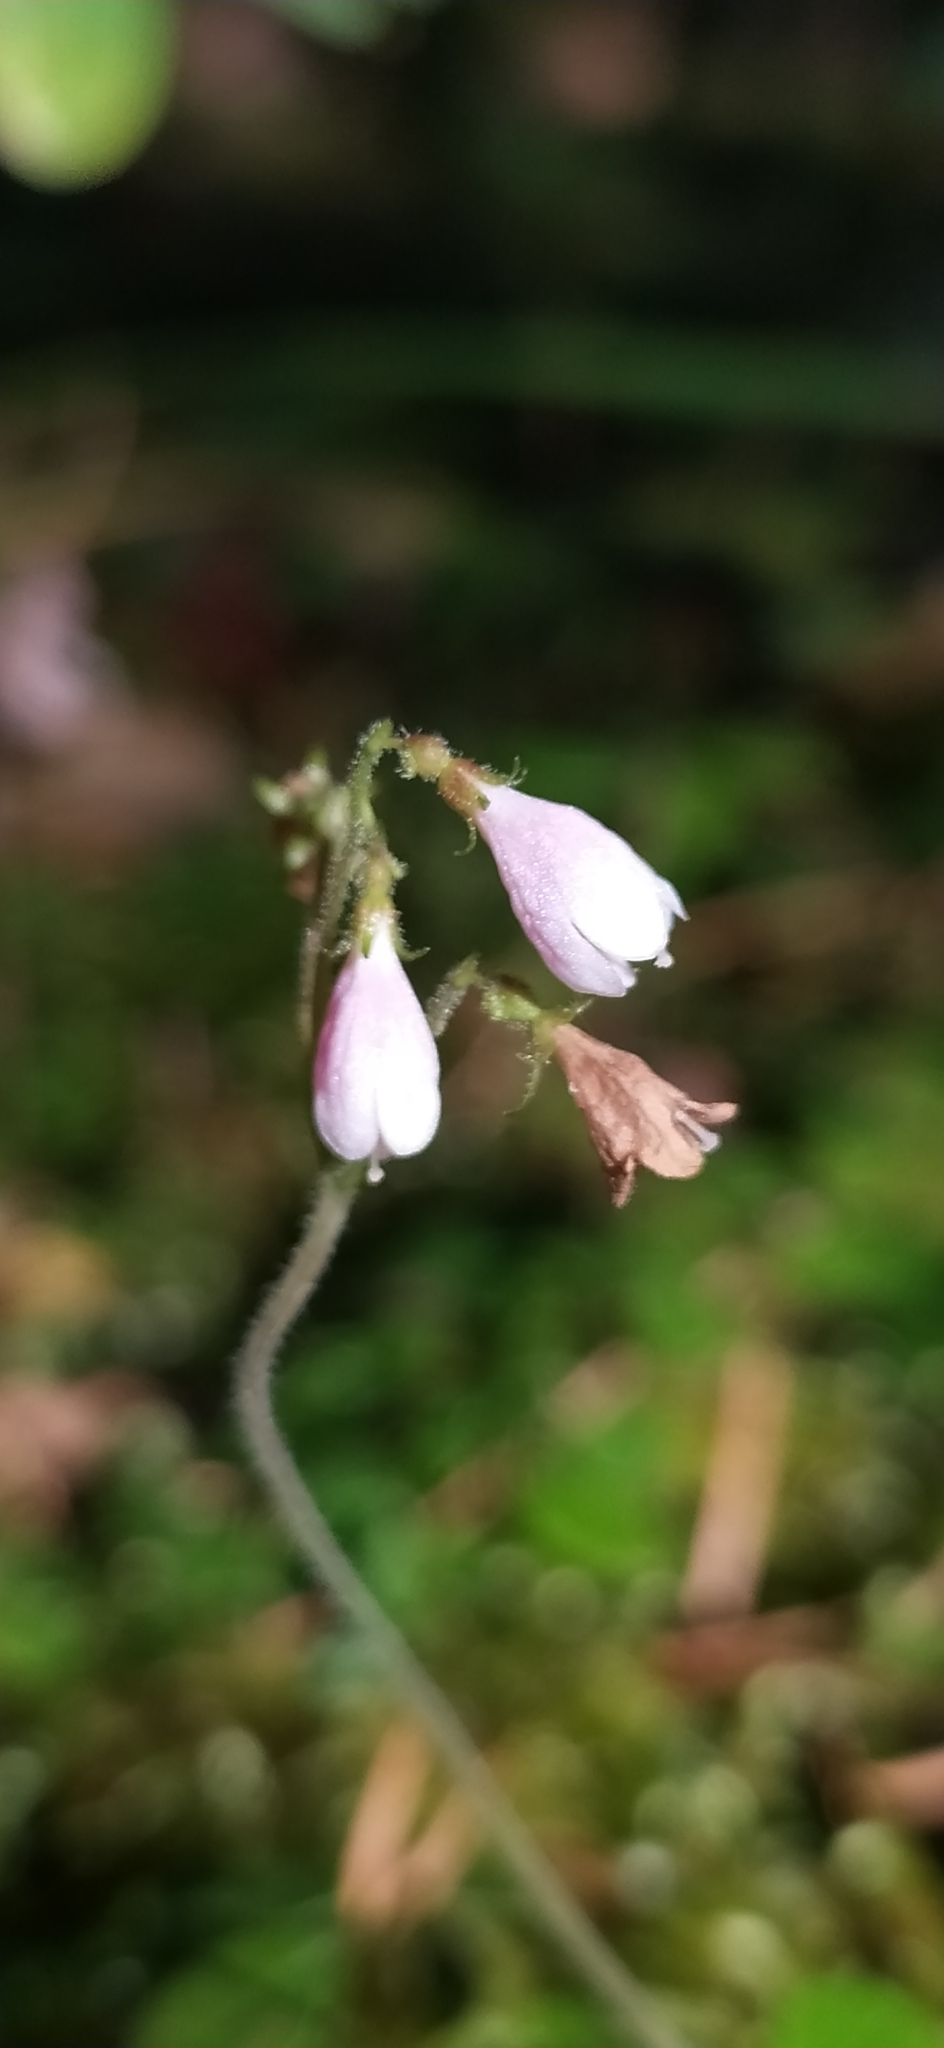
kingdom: Plantae
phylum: Tracheophyta
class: Magnoliopsida
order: Dipsacales
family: Caprifoliaceae
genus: Linnaea
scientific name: Linnaea borealis
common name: Twinflower
